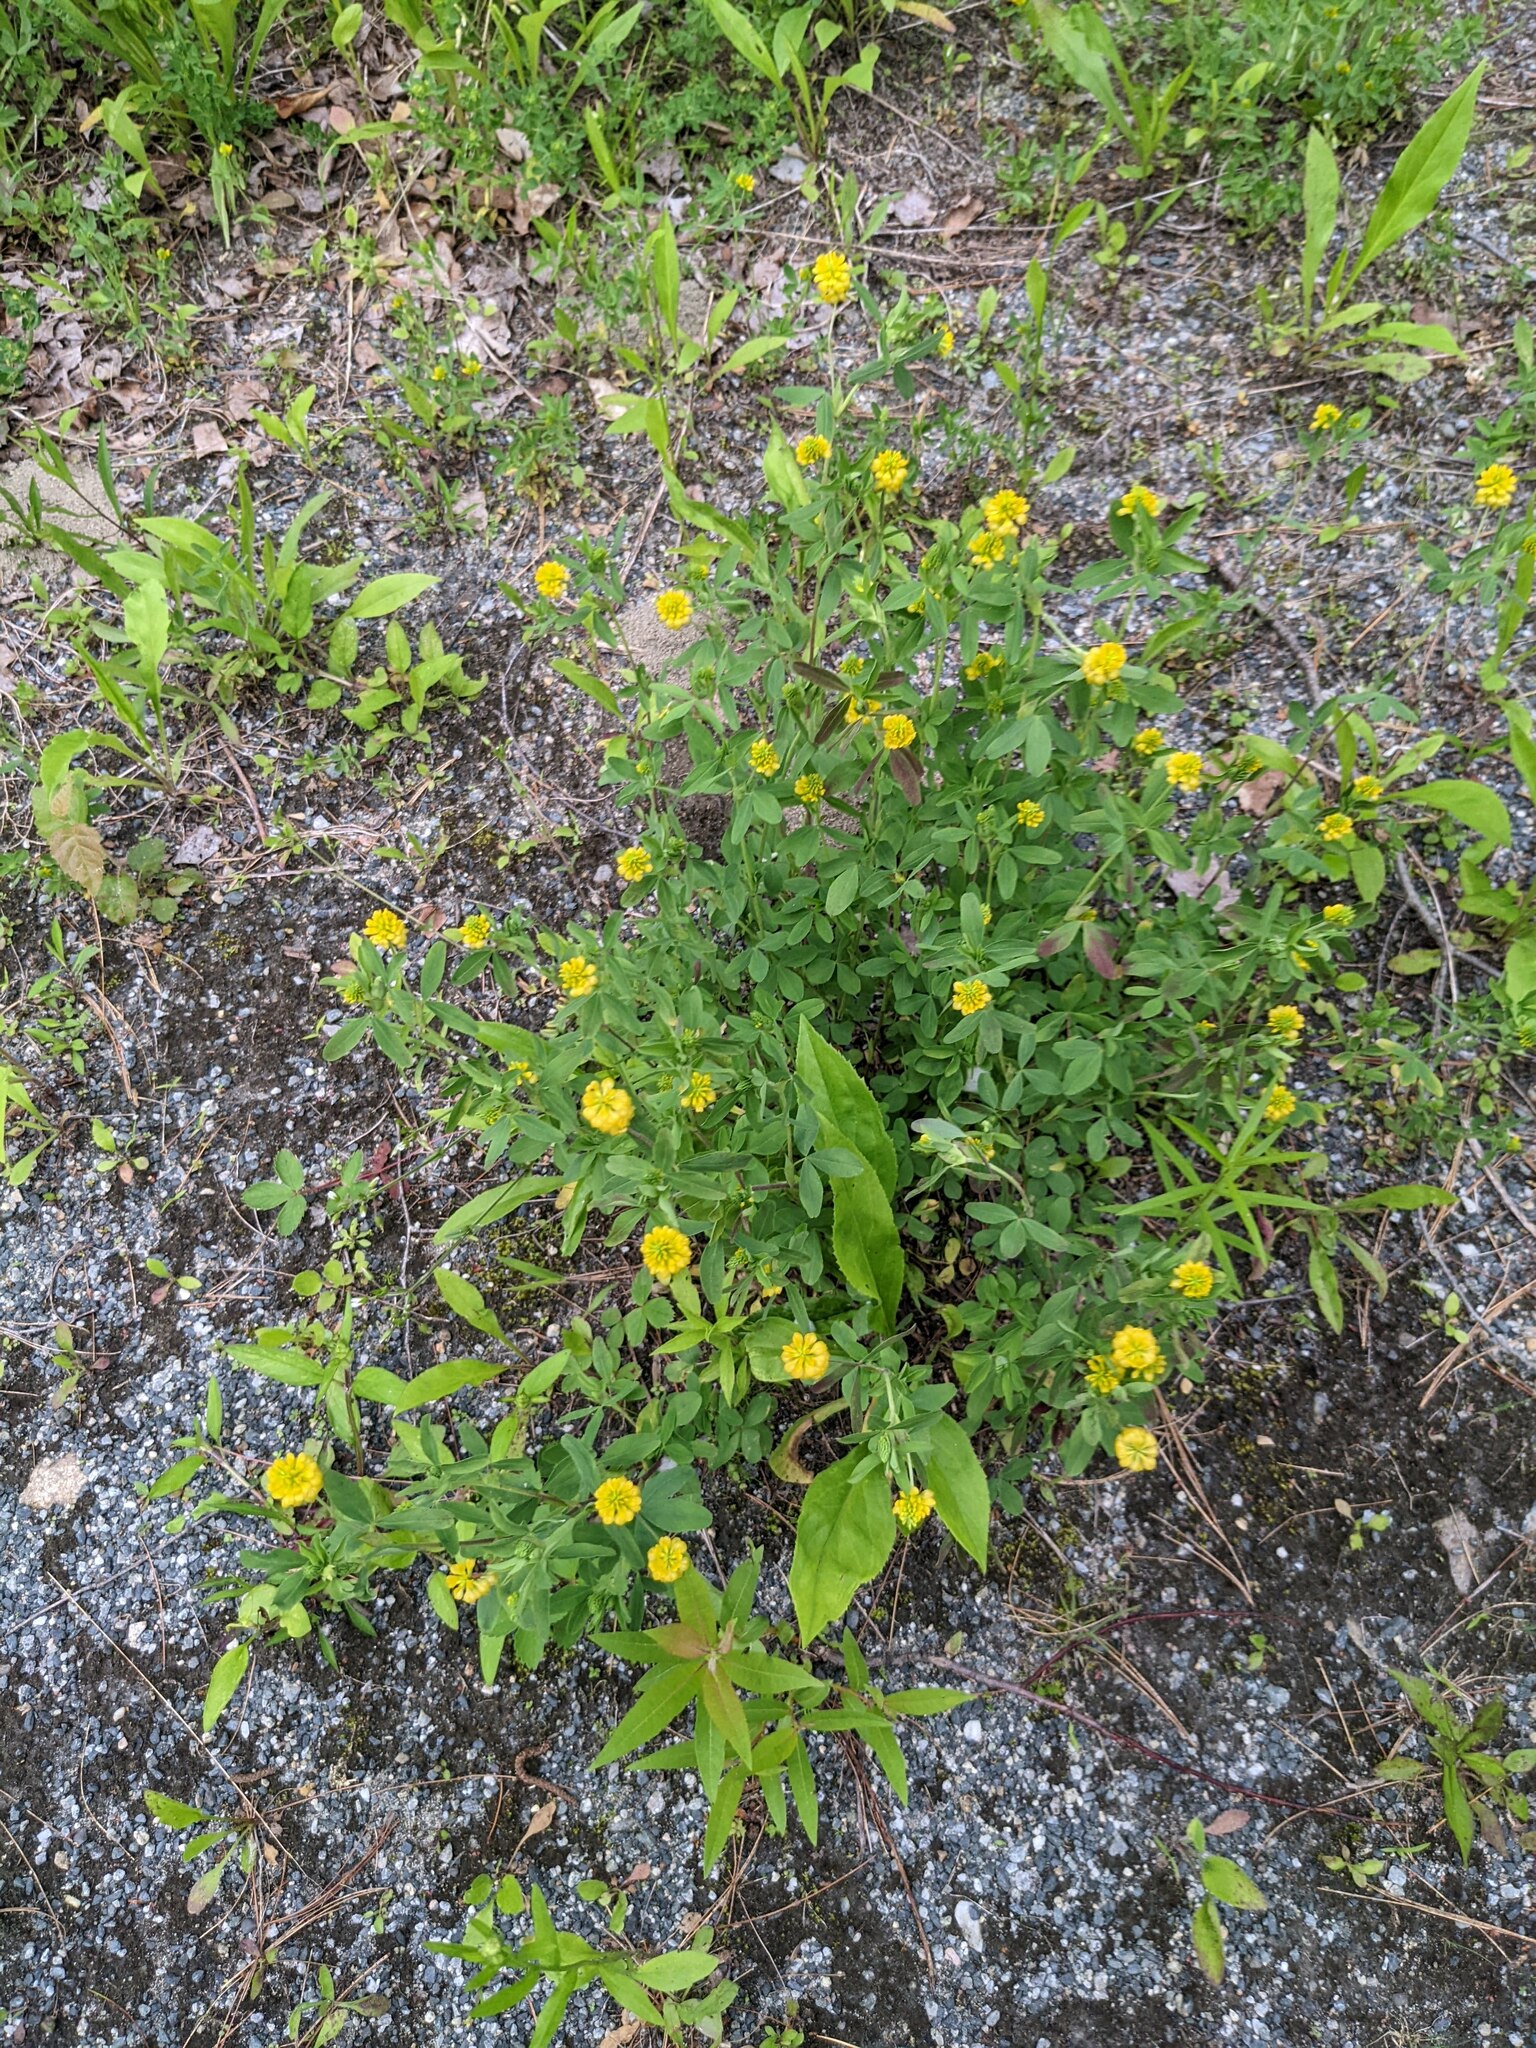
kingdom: Plantae
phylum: Tracheophyta
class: Magnoliopsida
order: Fabales
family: Fabaceae
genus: Trifolium
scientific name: Trifolium aureum
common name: Golden clover
